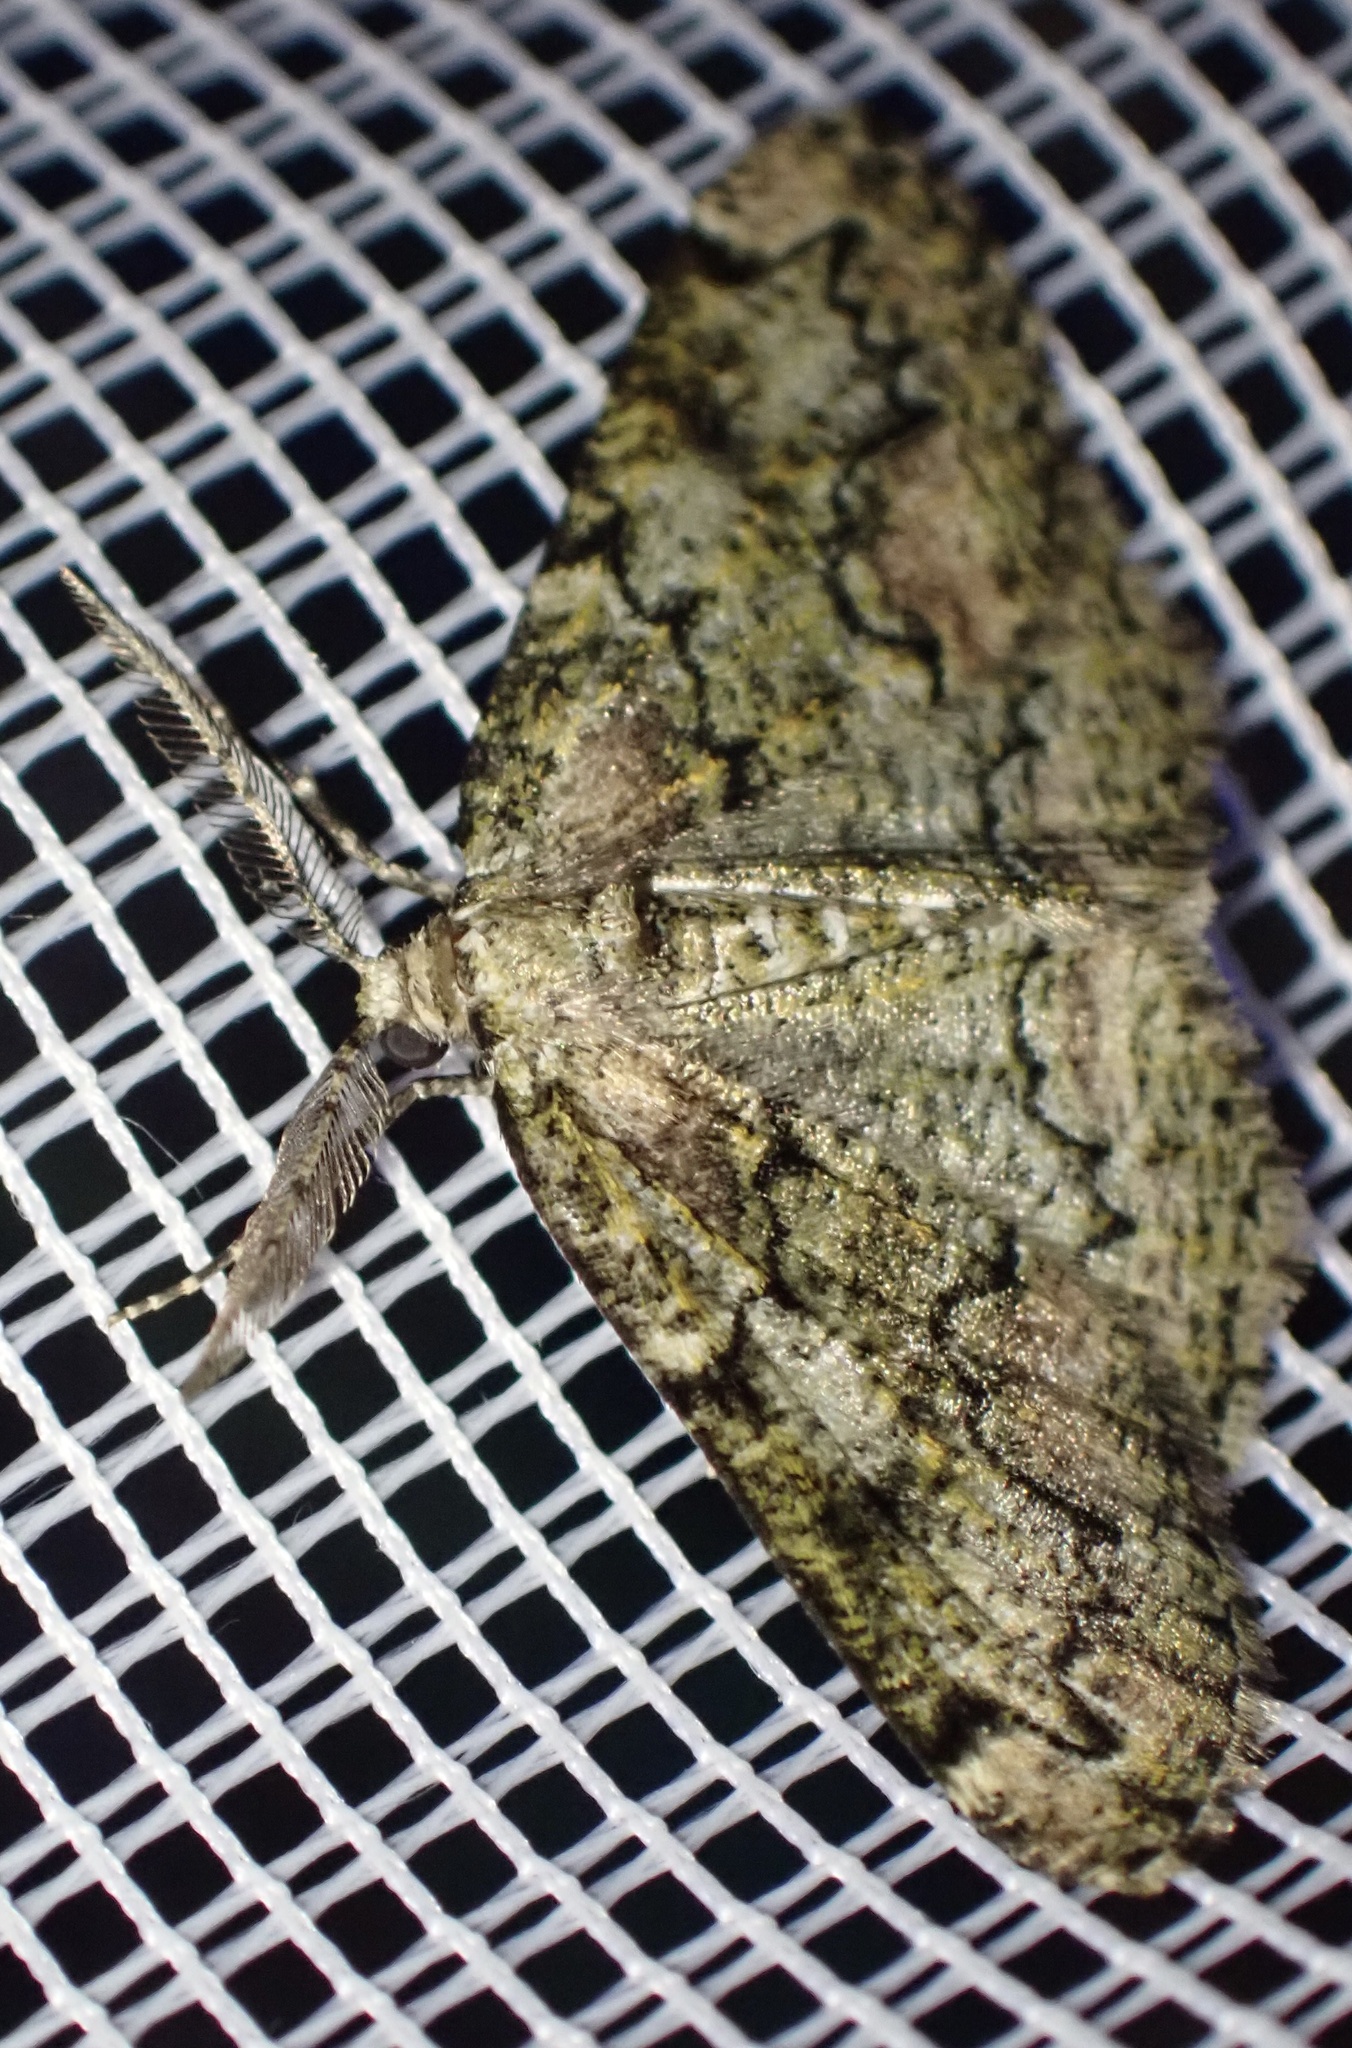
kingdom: Animalia
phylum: Arthropoda
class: Insecta
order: Lepidoptera
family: Geometridae
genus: Cleorodes
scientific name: Cleorodes lichenaria
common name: Brussels lace
